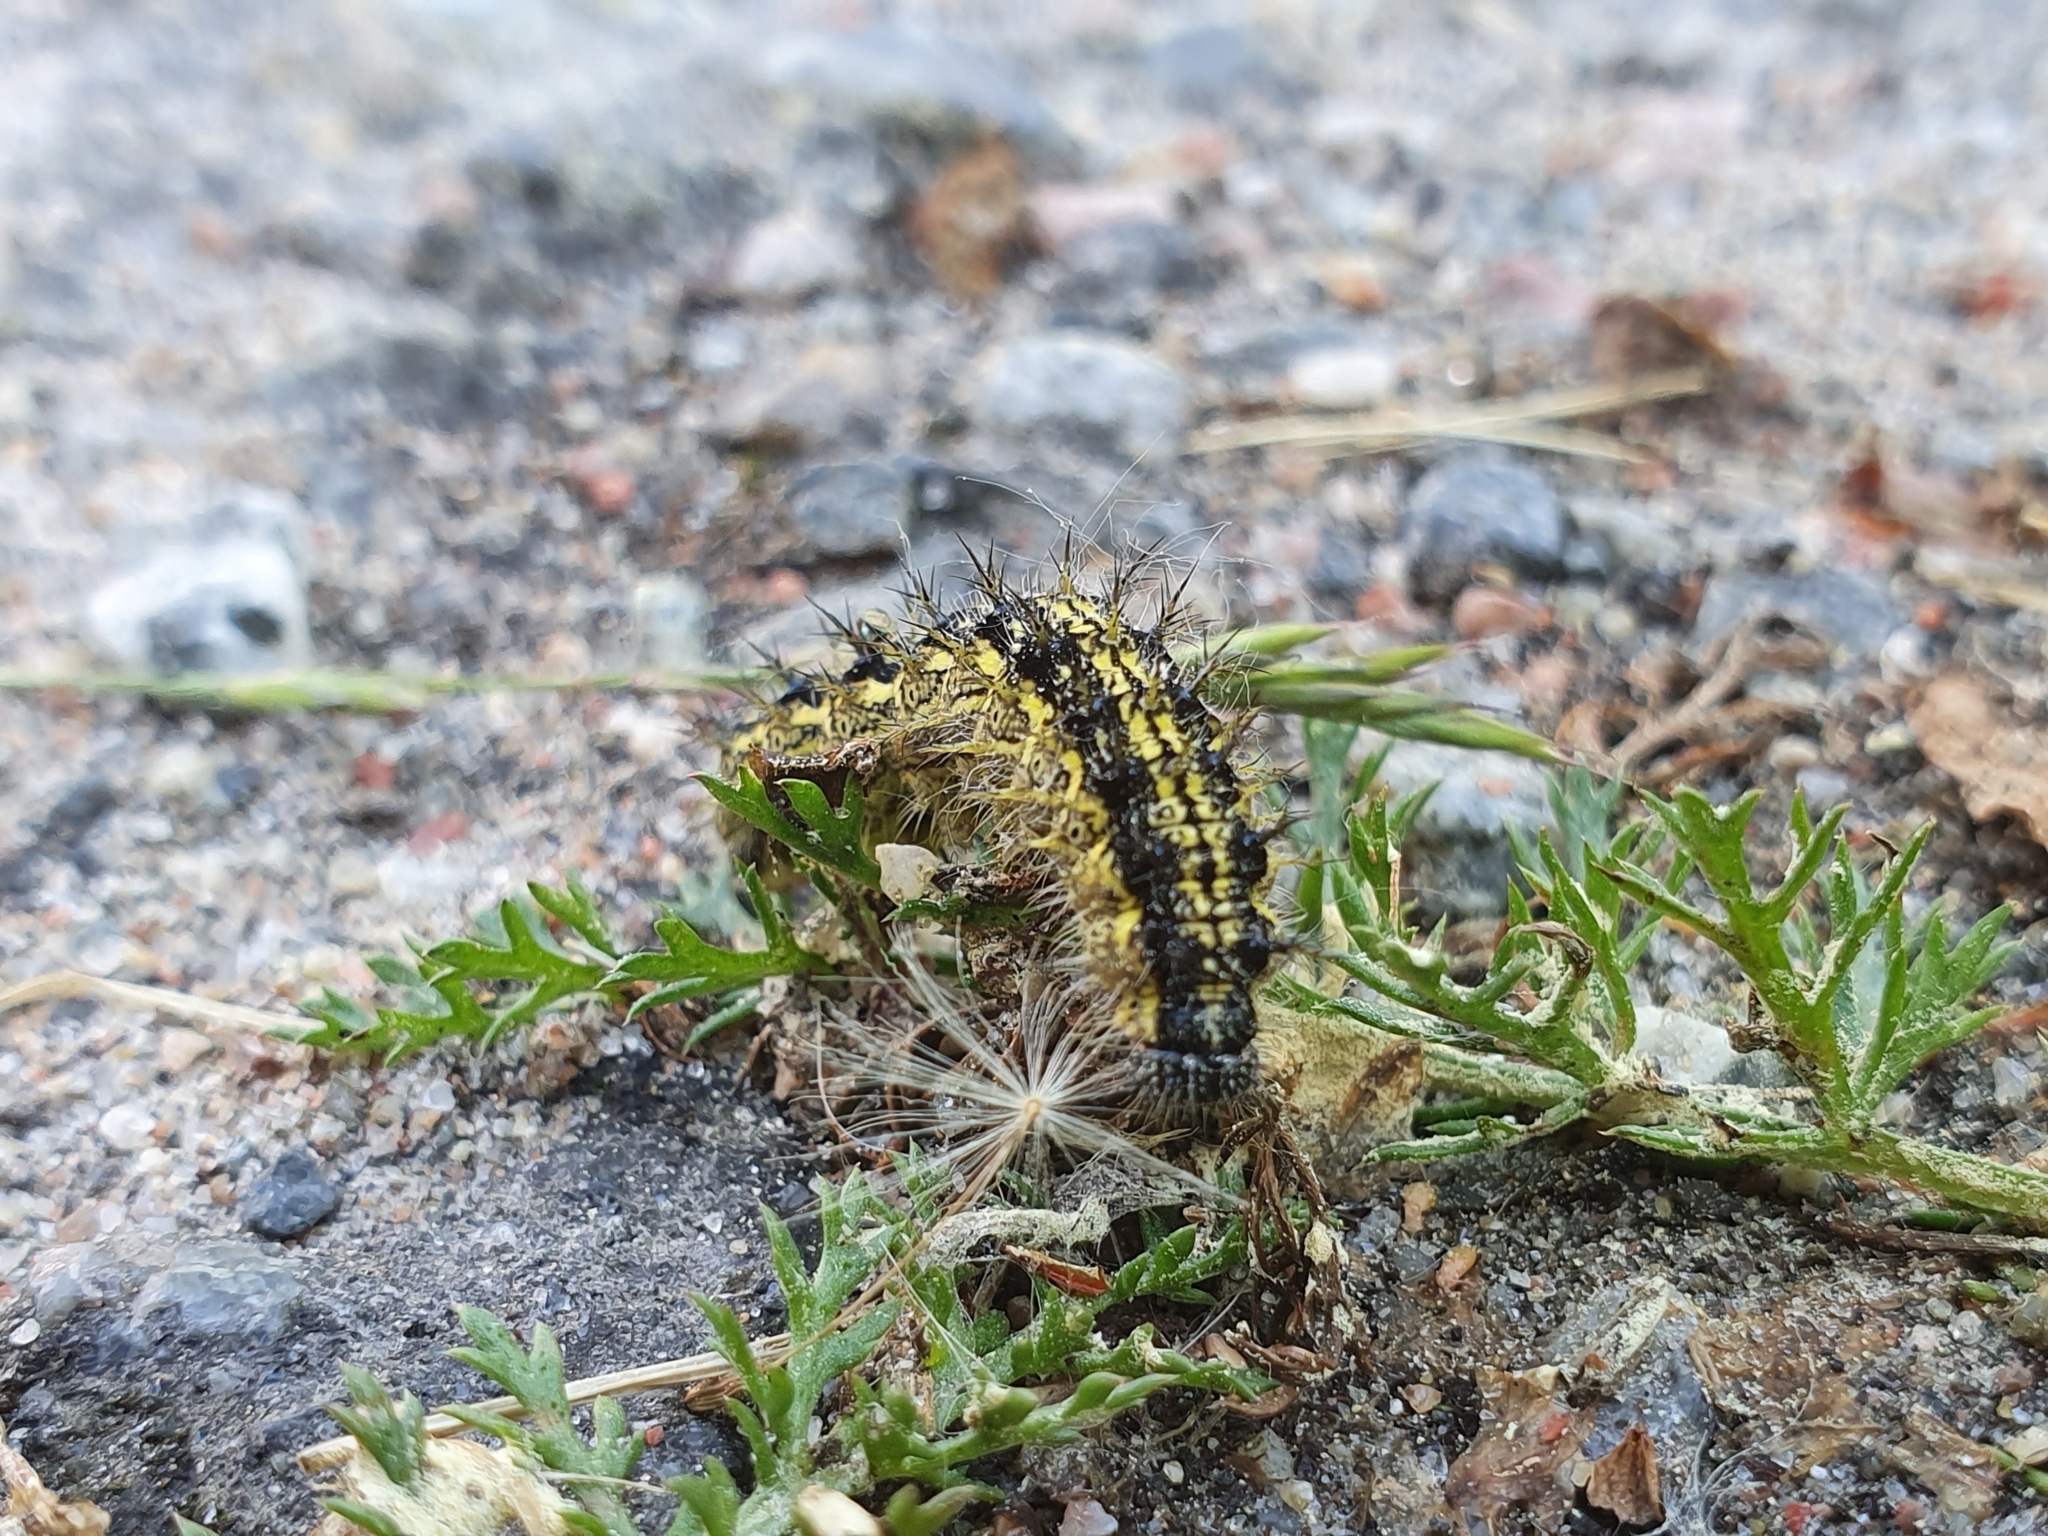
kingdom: Animalia
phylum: Arthropoda
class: Insecta
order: Lepidoptera
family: Nymphalidae
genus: Aglais
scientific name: Aglais urticae
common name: Small tortoiseshell
